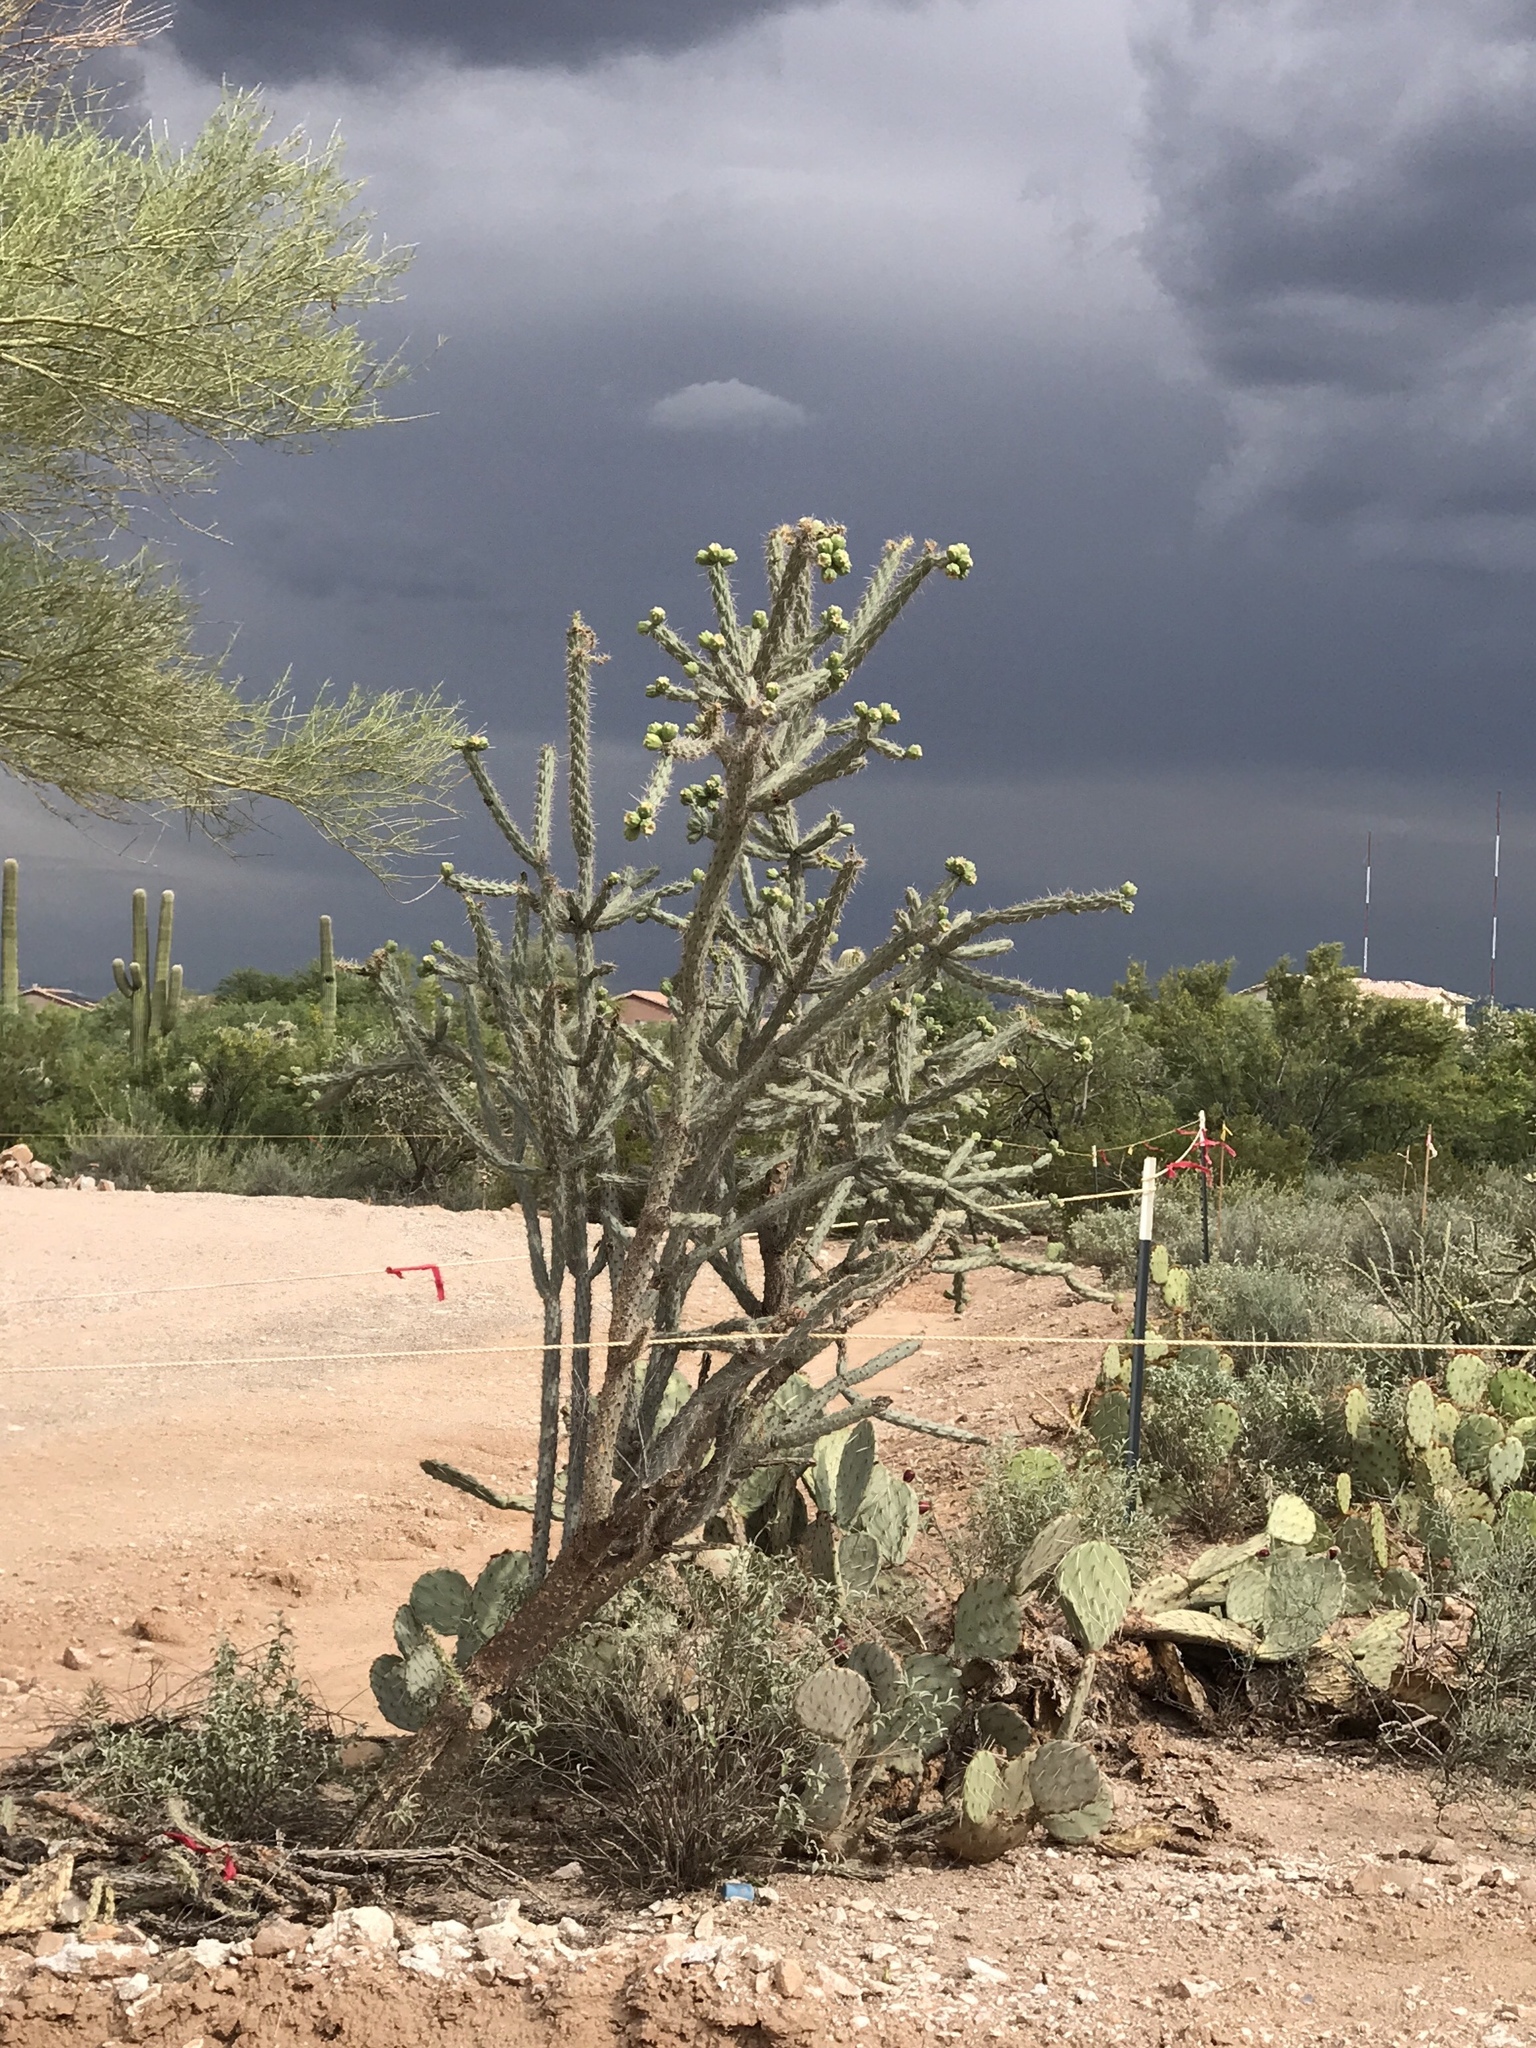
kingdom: Plantae
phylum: Tracheophyta
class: Magnoliopsida
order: Caryophyllales
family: Cactaceae
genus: Cylindropuntia
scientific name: Cylindropuntia thurberi
